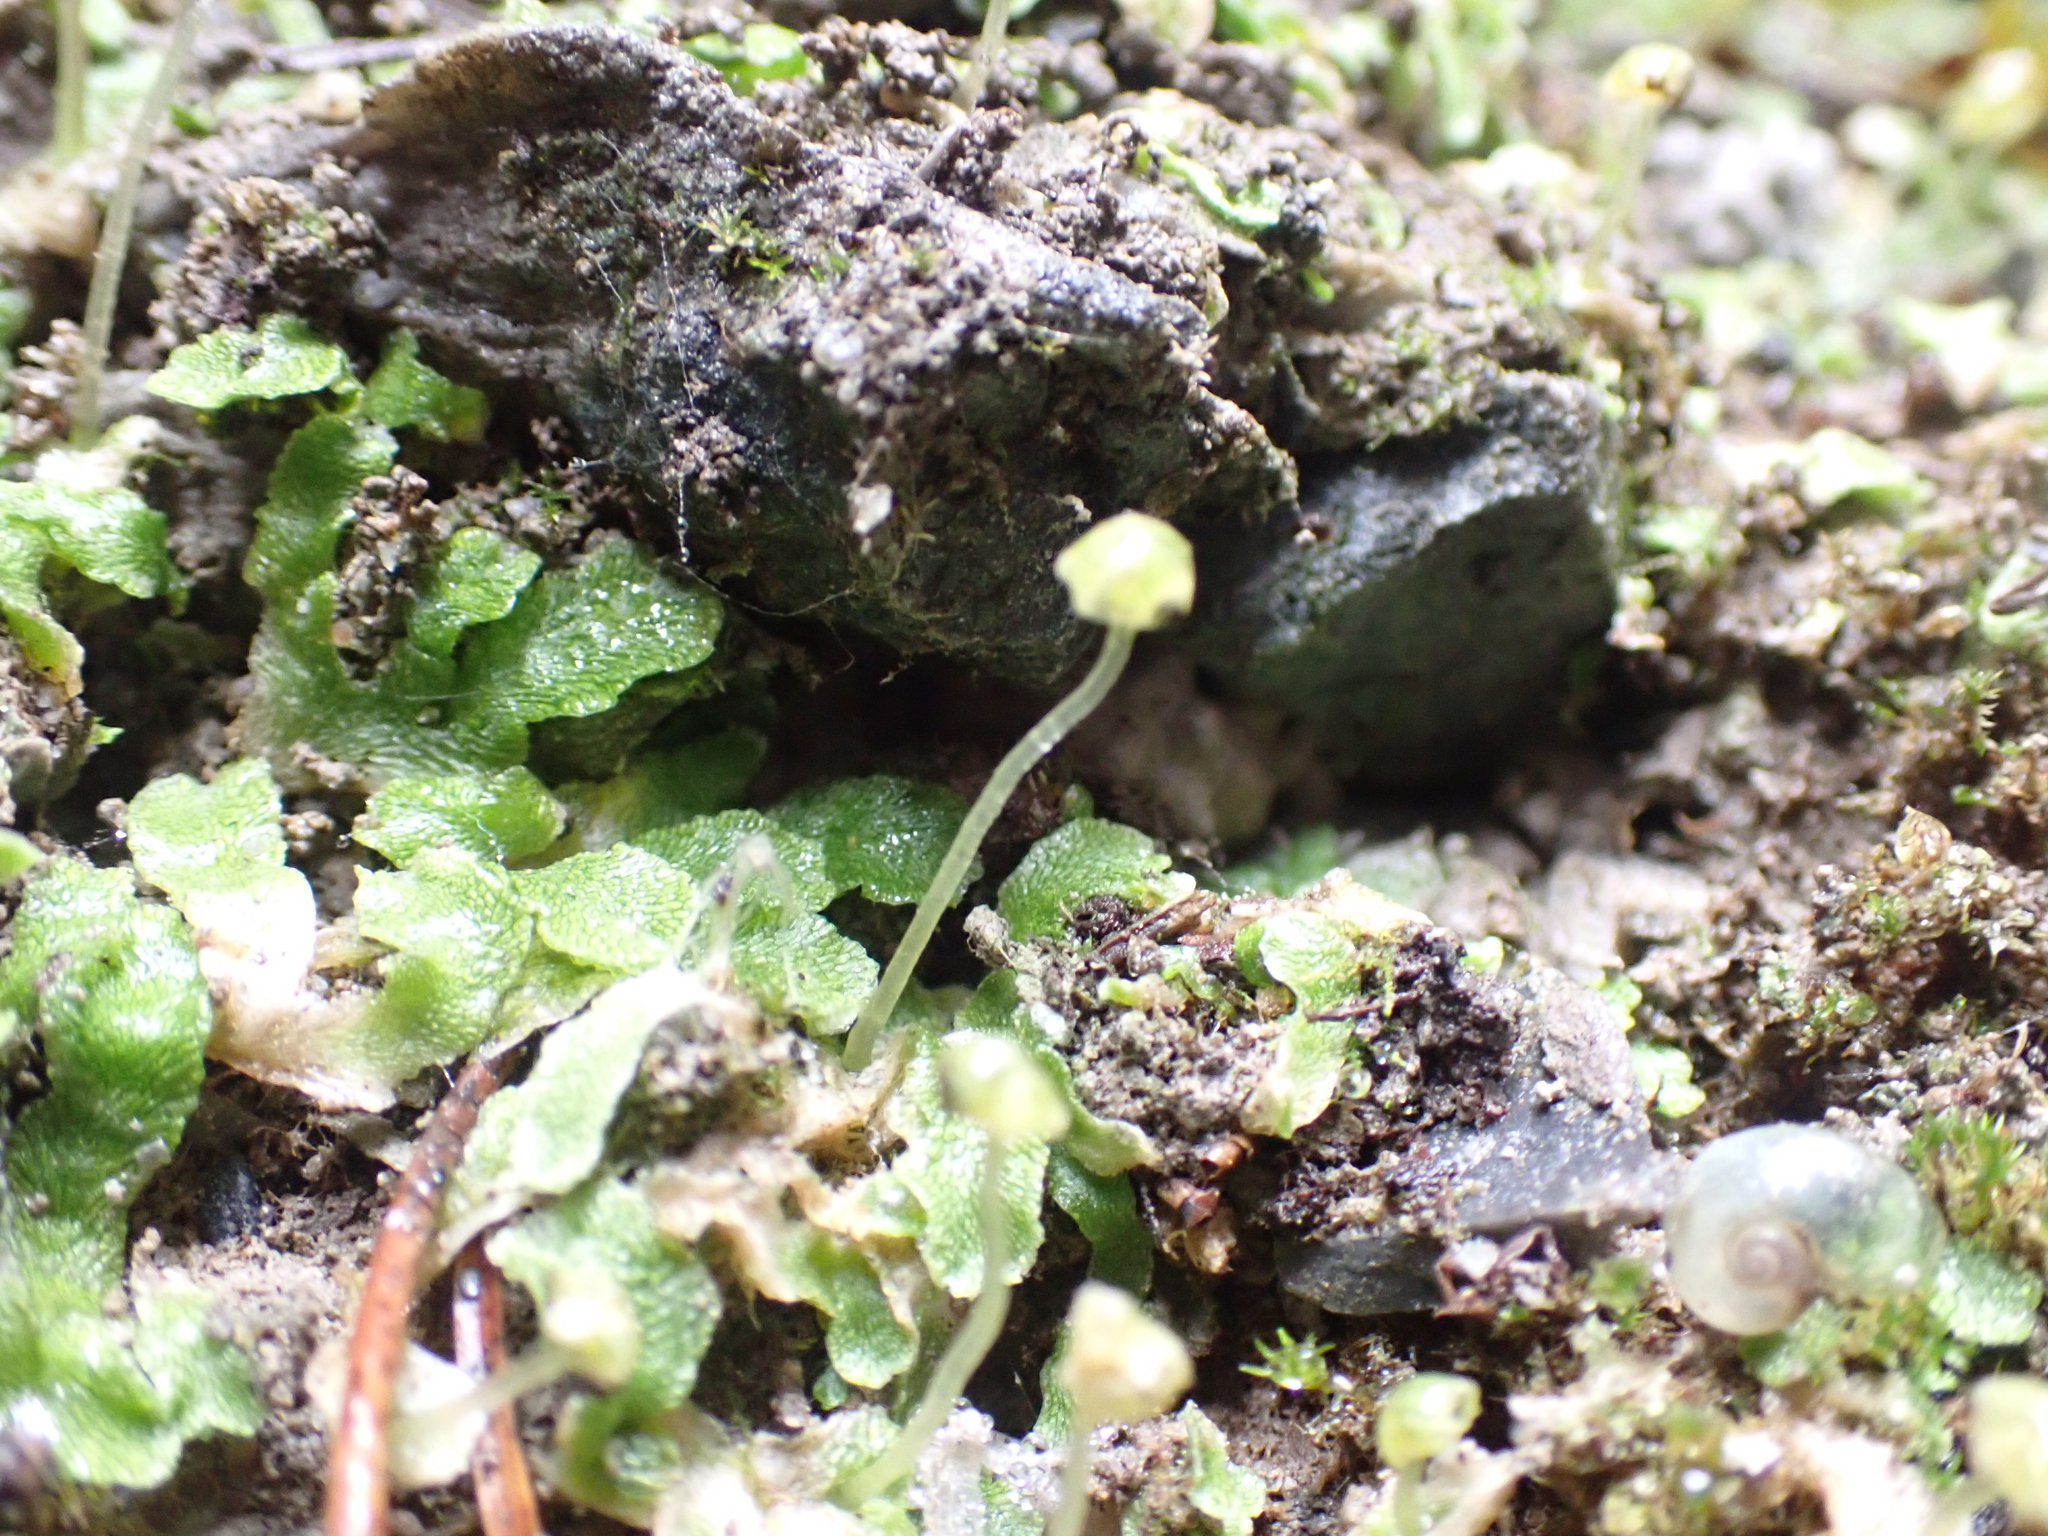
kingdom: Plantae
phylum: Marchantiophyta
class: Marchantiopsida
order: Marchantiales
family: Cleveaceae
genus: Sauteria
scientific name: Sauteria alpina
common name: Snow lungwort
